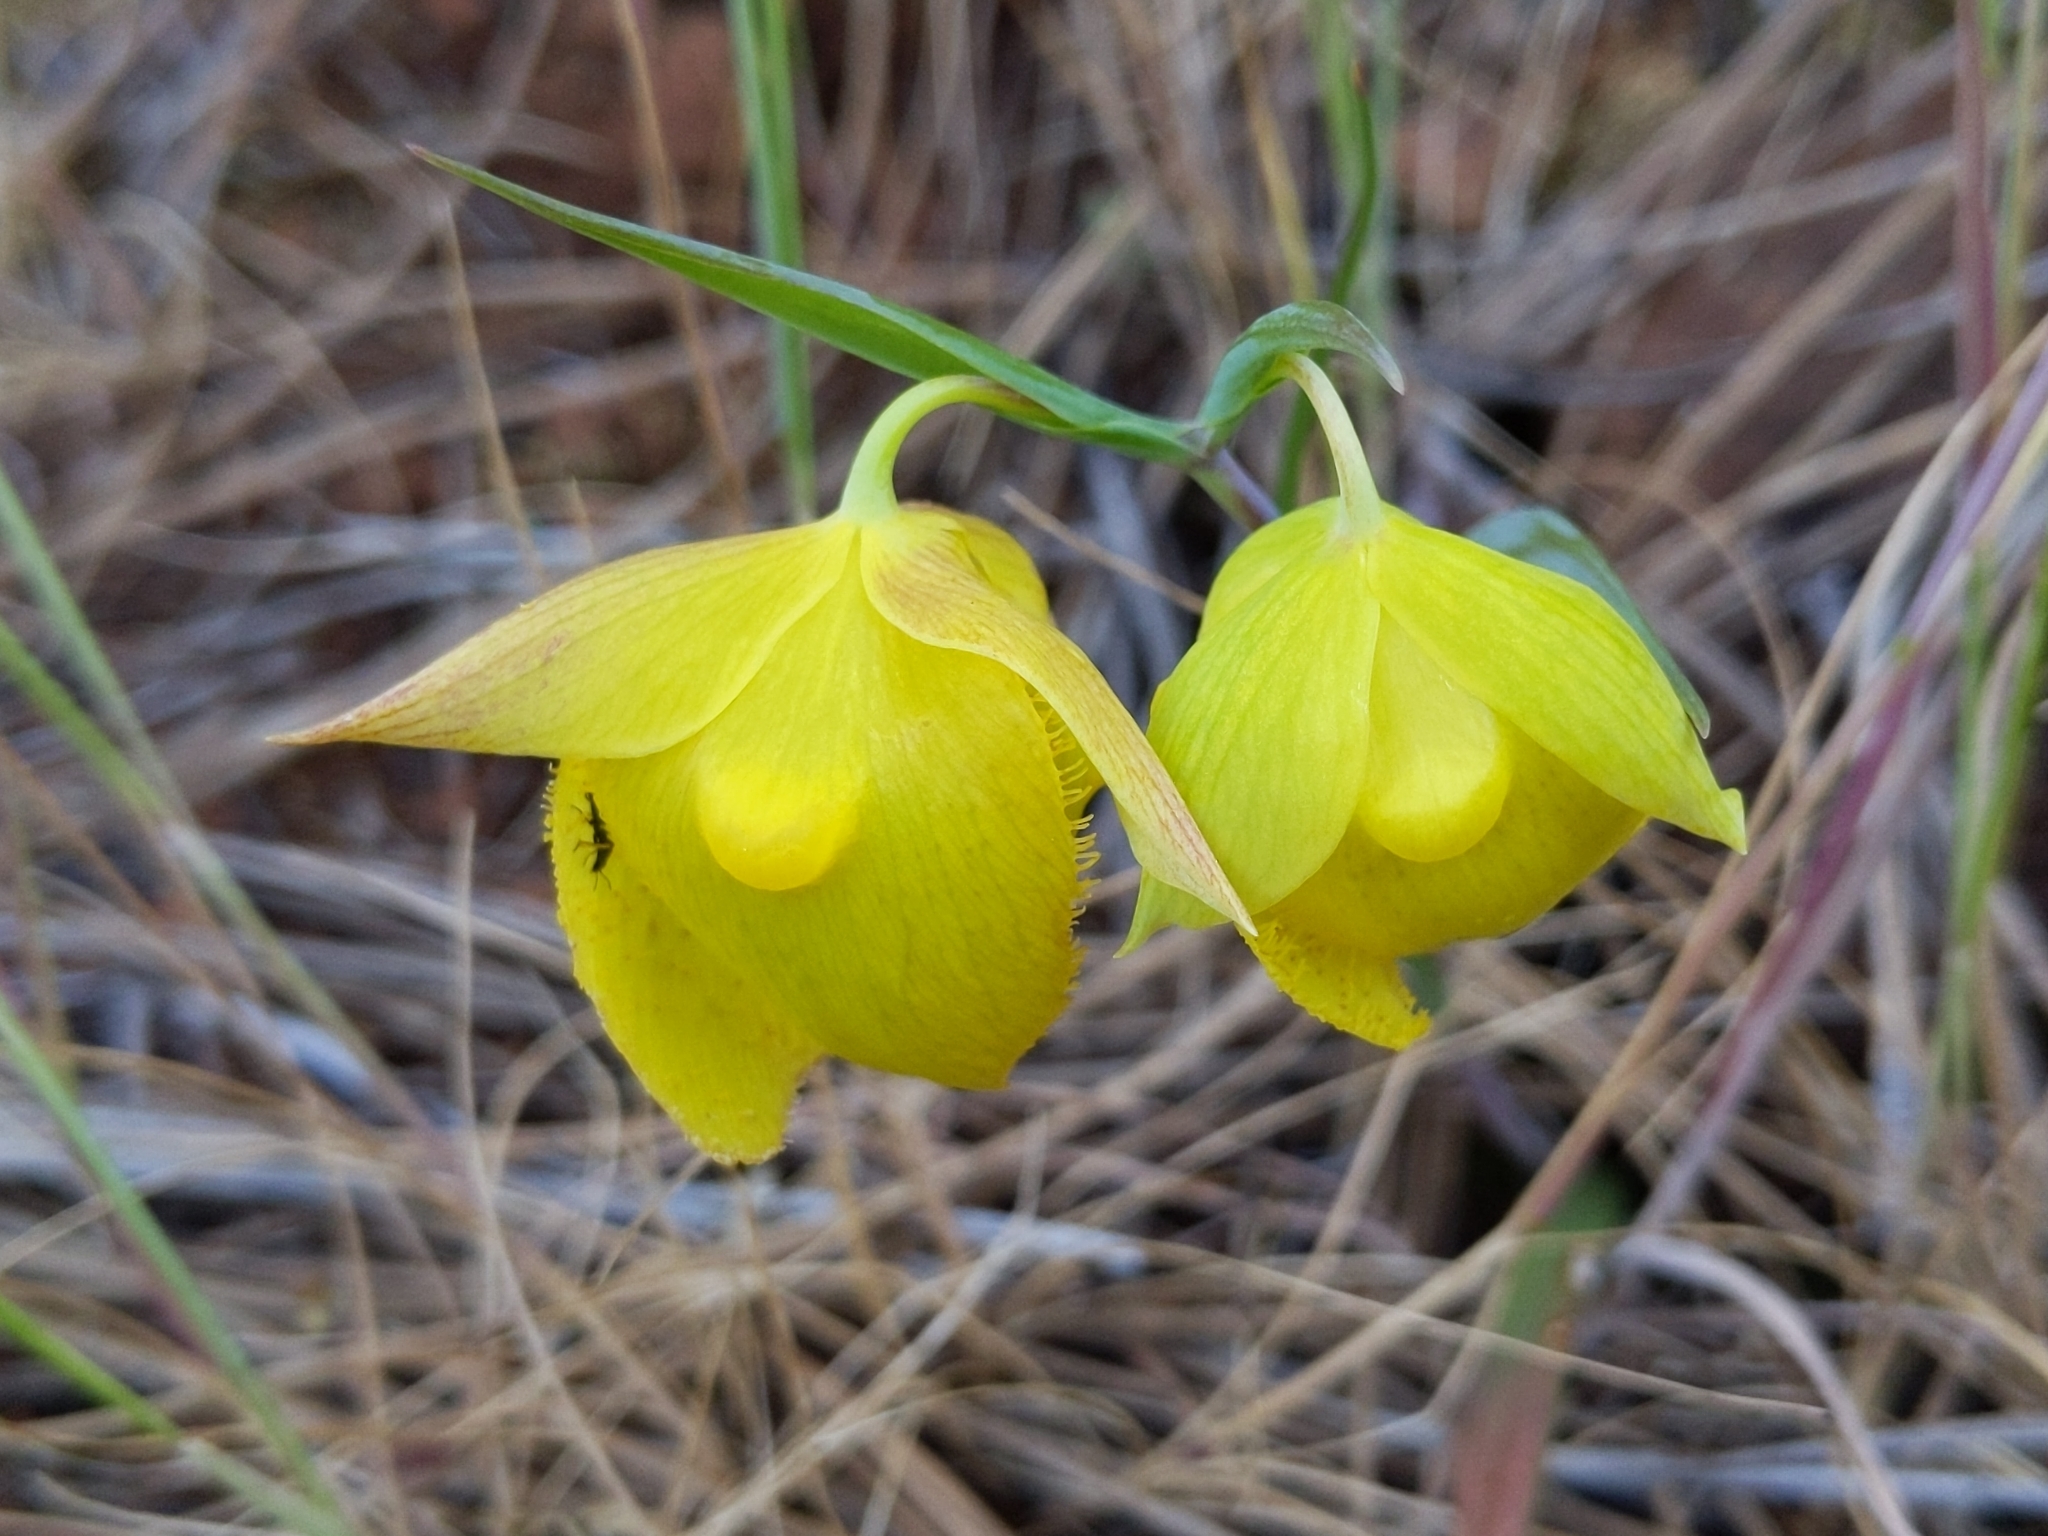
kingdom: Plantae
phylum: Tracheophyta
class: Liliopsida
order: Liliales
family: Liliaceae
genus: Calochortus
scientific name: Calochortus pulchellus
